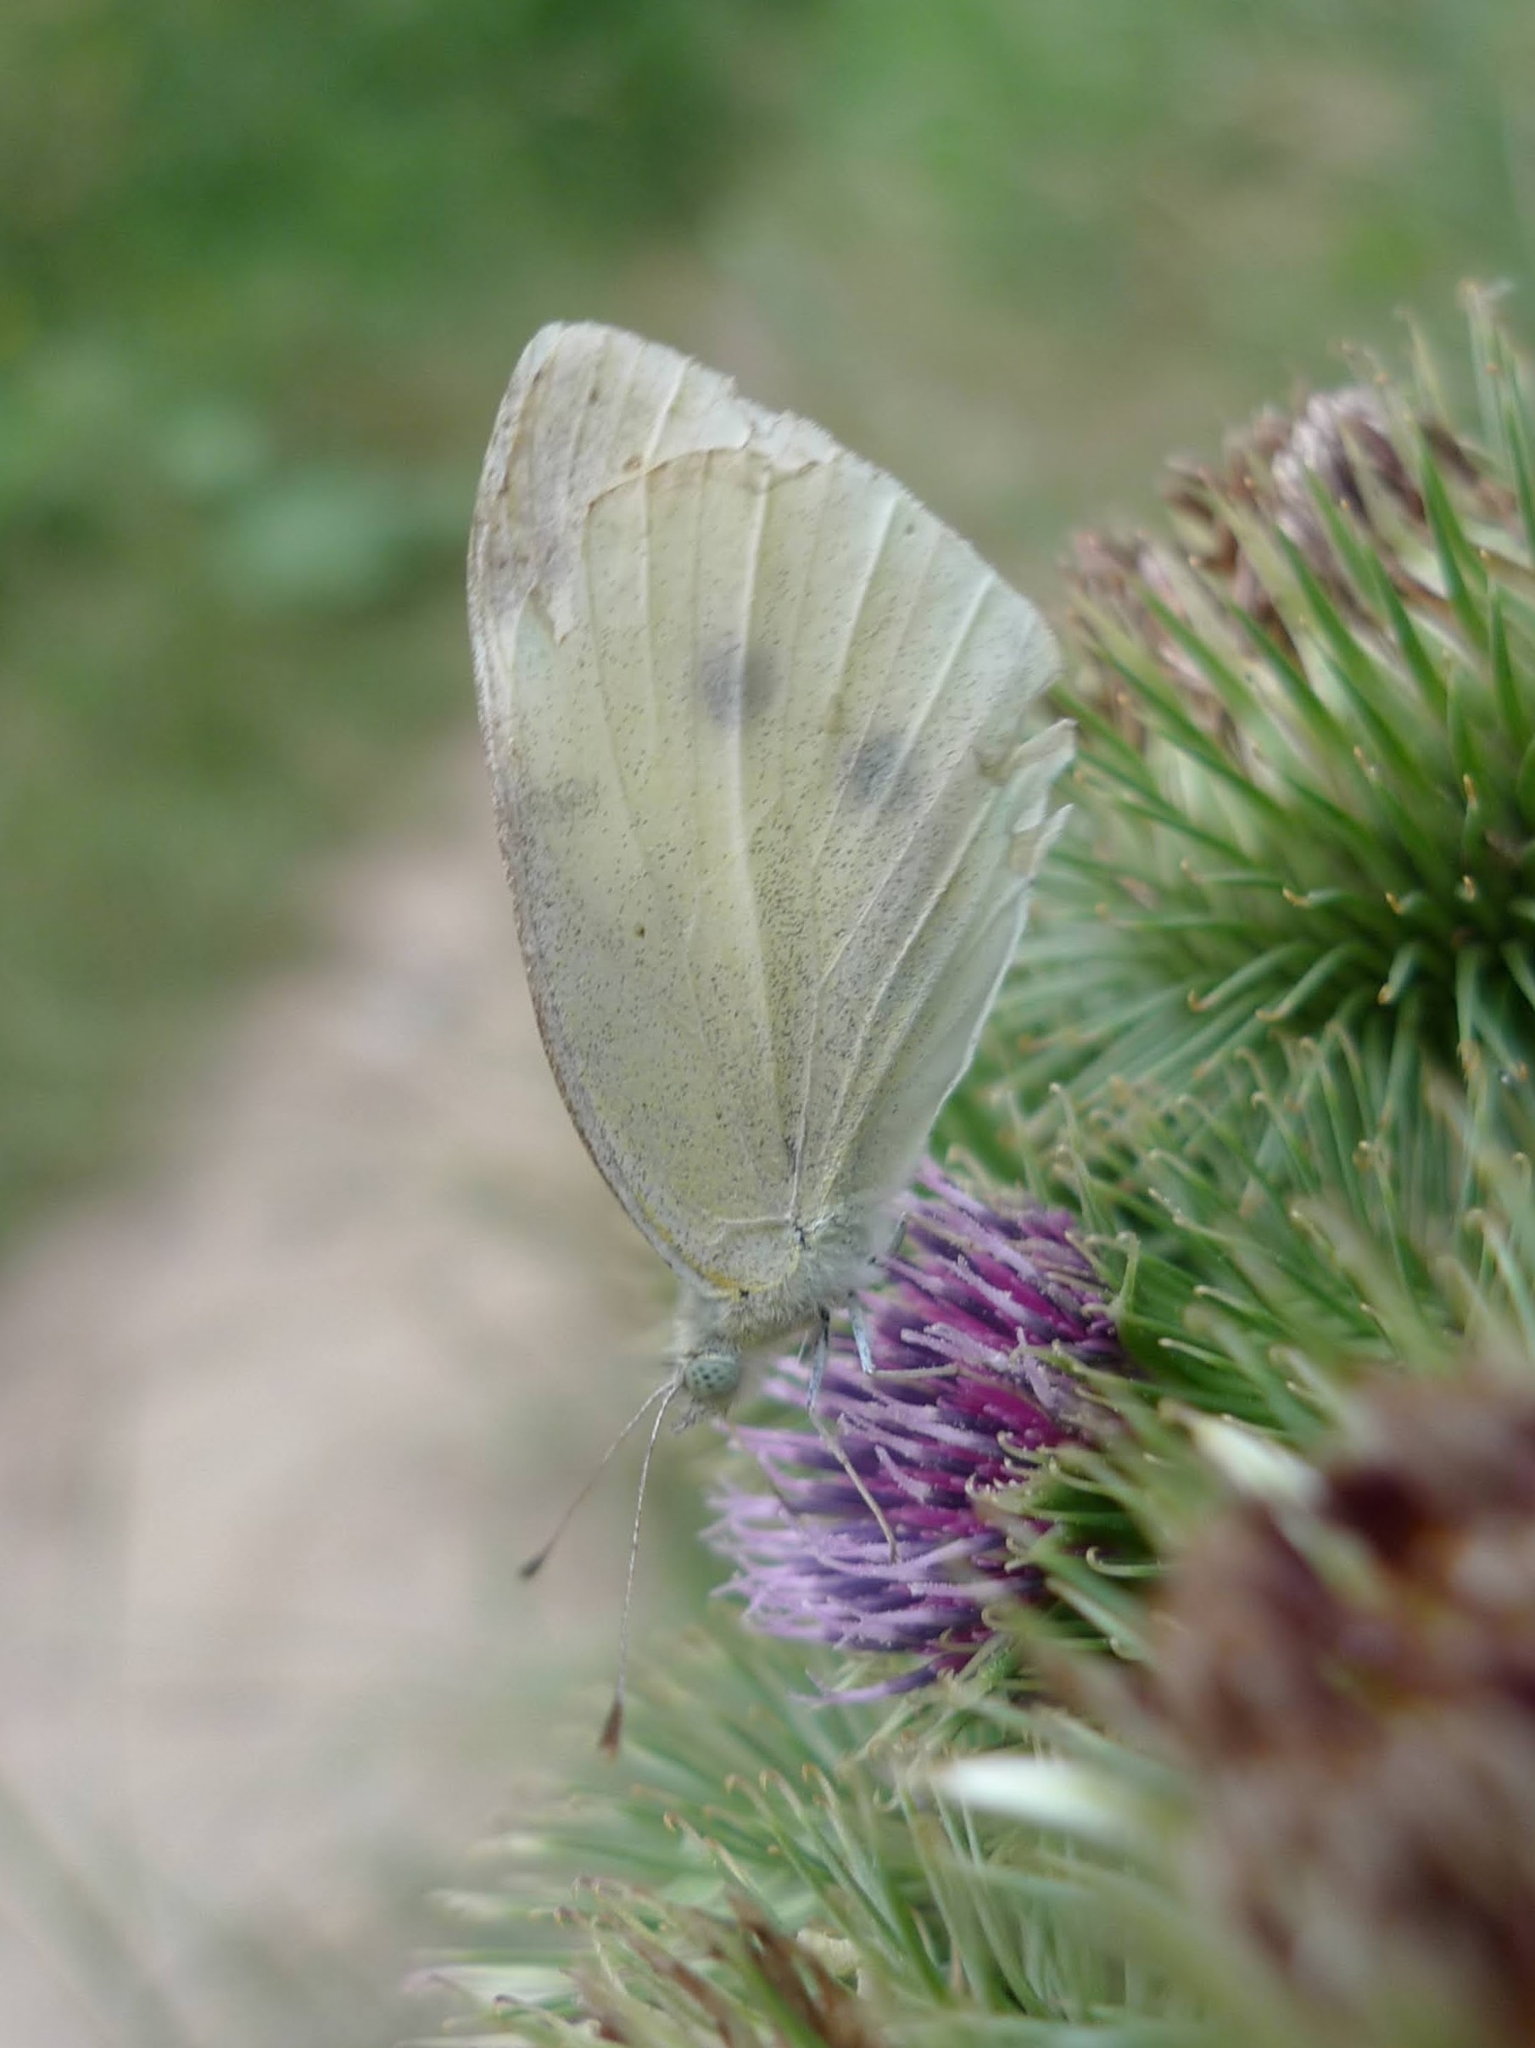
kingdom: Animalia
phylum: Arthropoda
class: Insecta
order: Lepidoptera
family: Pieridae
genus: Pieris
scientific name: Pieris rapae
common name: Small white
